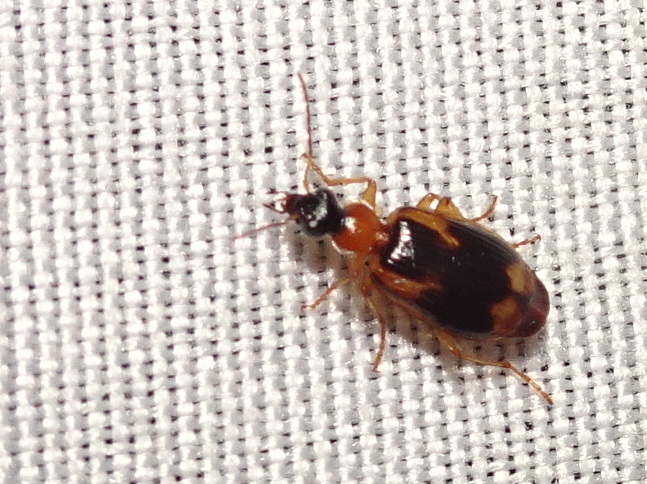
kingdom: Animalia
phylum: Arthropoda
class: Insecta
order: Coleoptera
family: Carabidae
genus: Lebia
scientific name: Lebia analis
